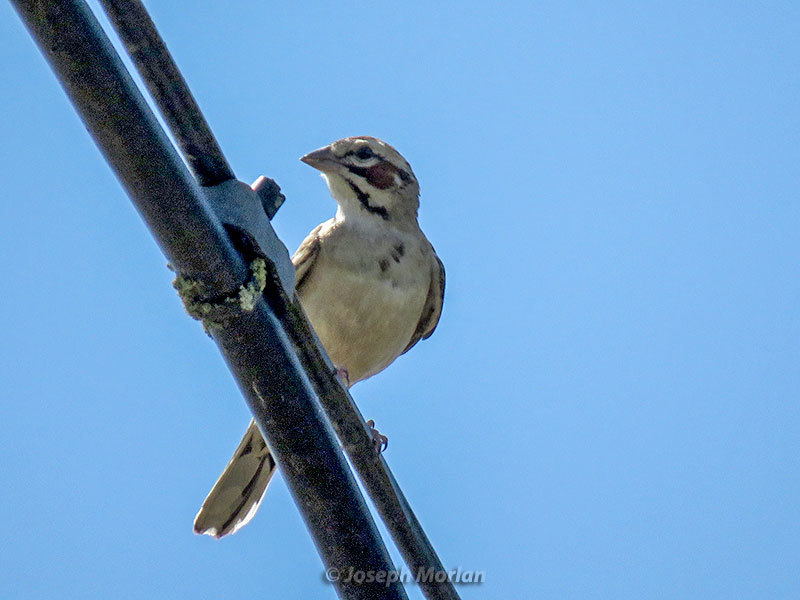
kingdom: Animalia
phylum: Chordata
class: Aves
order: Passeriformes
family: Passerellidae
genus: Chondestes
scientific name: Chondestes grammacus
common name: Lark sparrow
